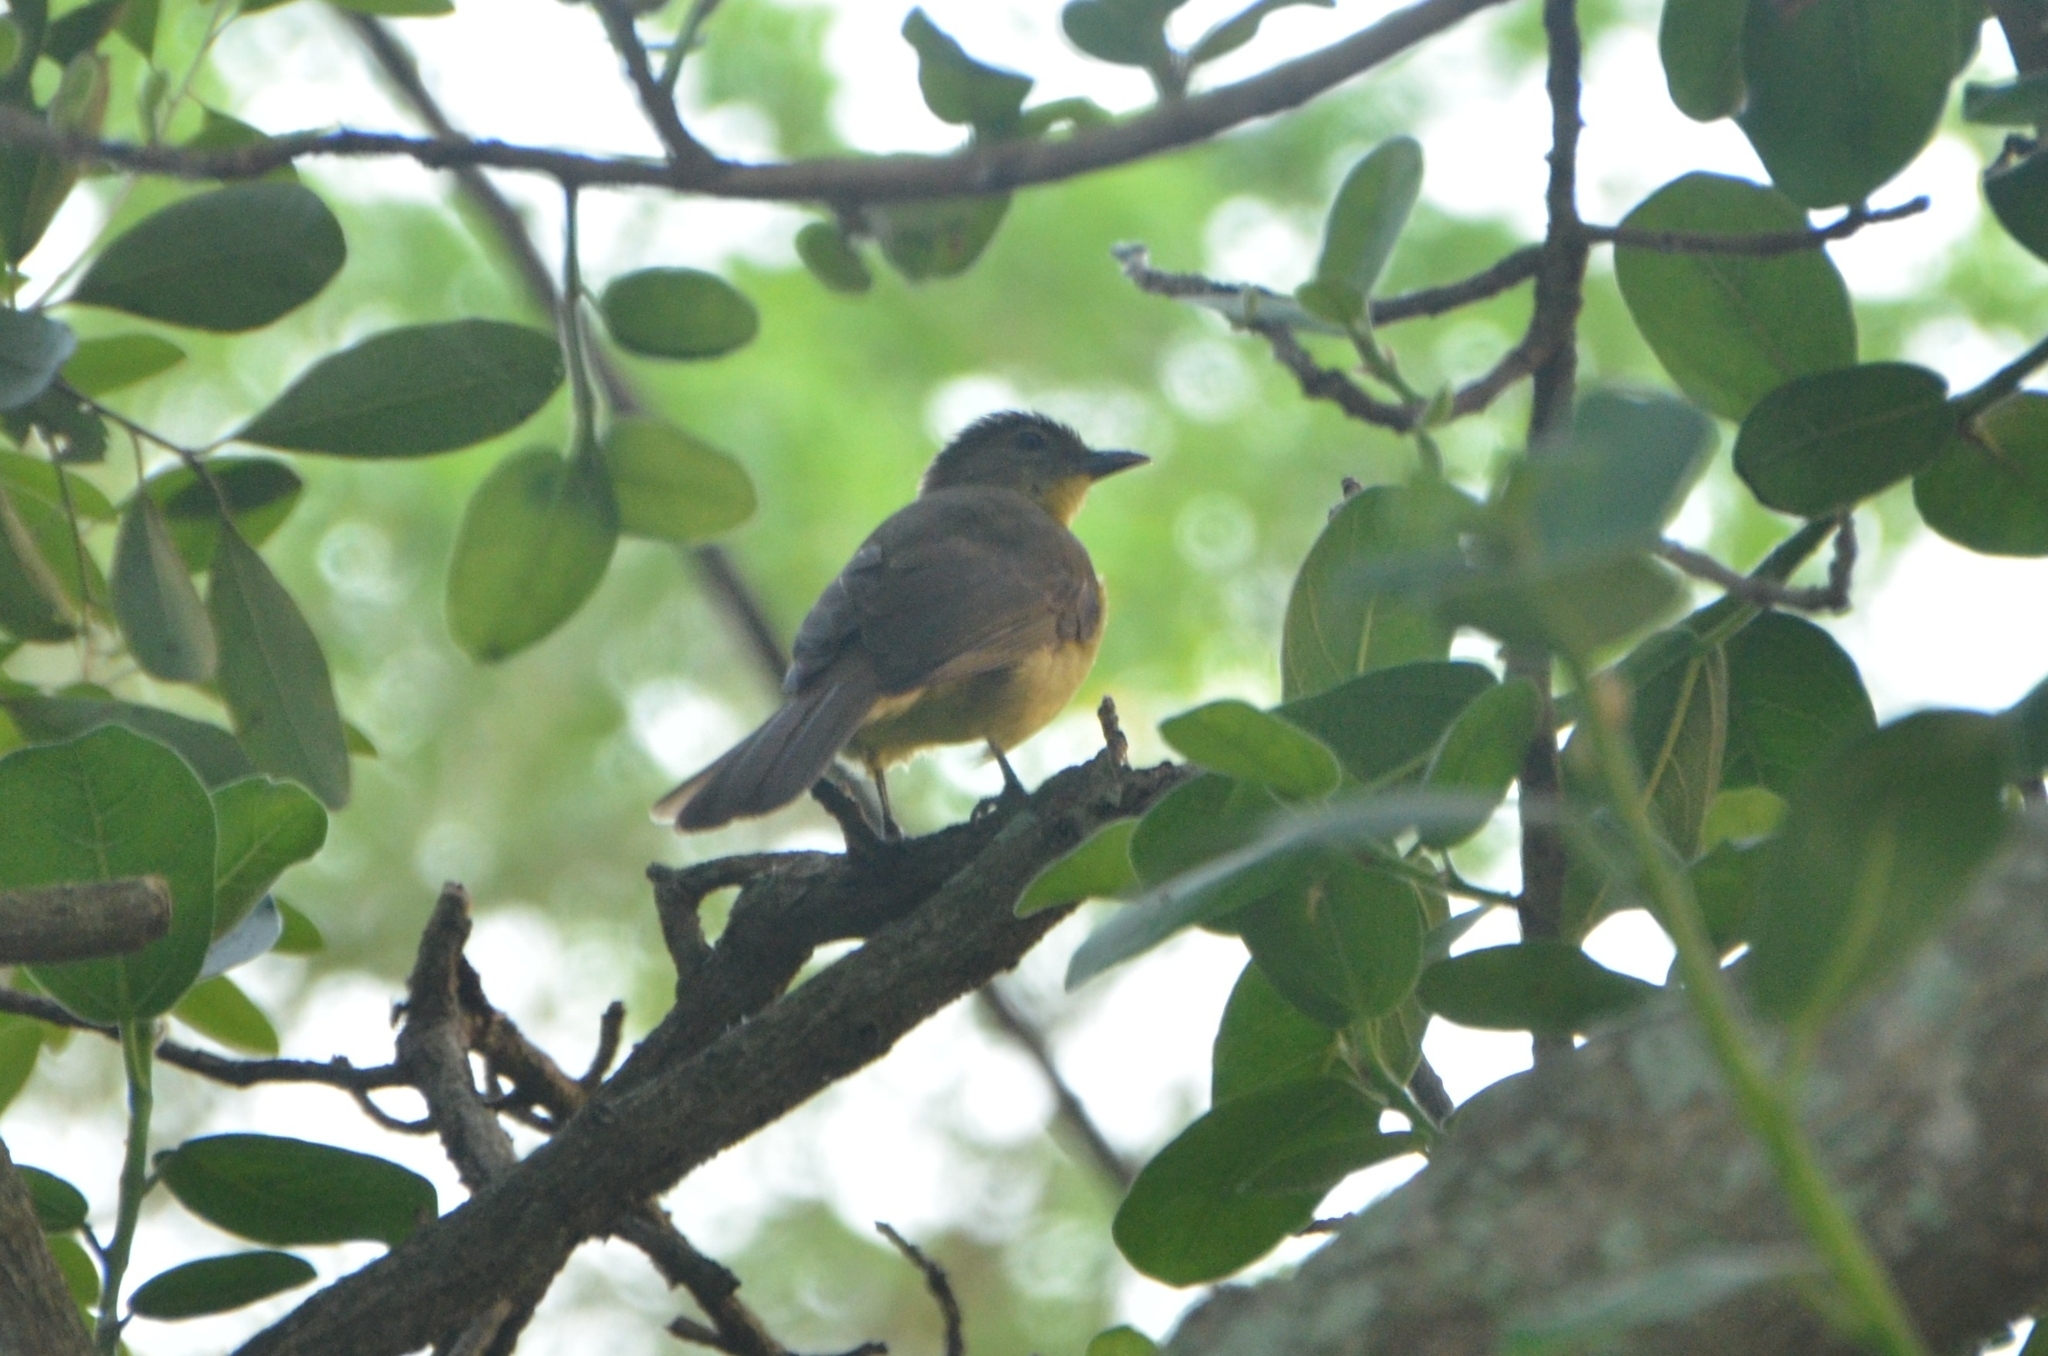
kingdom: Animalia
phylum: Chordata
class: Aves
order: Passeriformes
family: Pycnonotidae
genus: Chlorocichla
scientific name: Chlorocichla flaviventris
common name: Yellow-bellied greenbul
